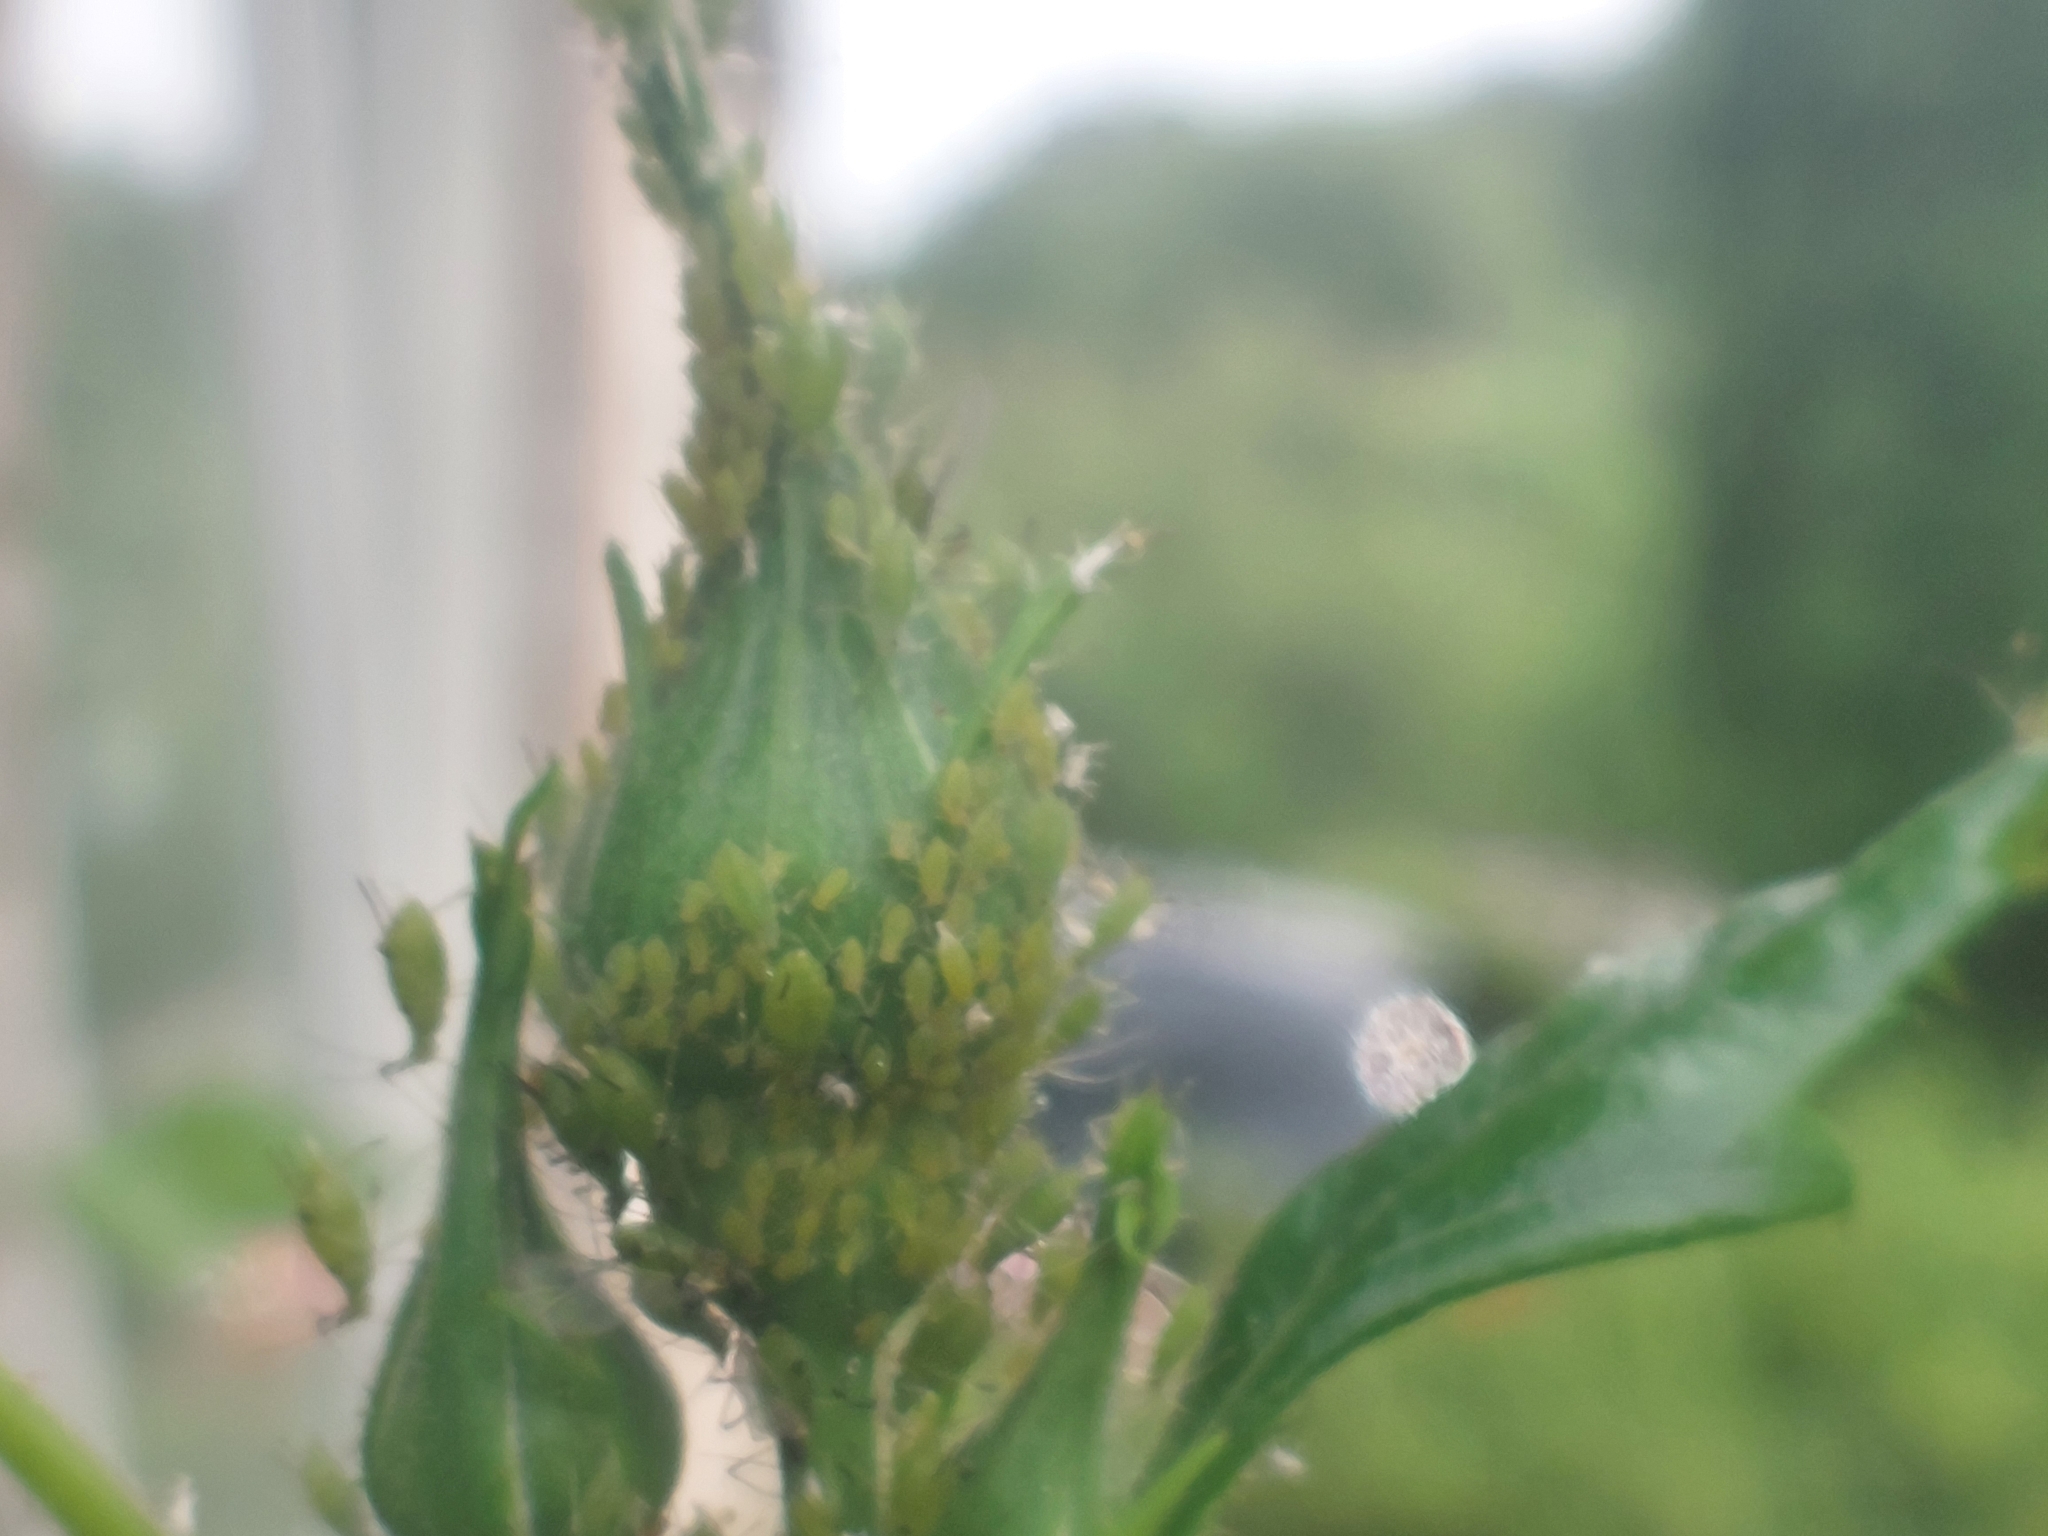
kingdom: Animalia
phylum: Arthropoda
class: Insecta
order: Hemiptera
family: Aphididae
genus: Macrosiphum
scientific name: Macrosiphum rosae
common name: Rose aphid
